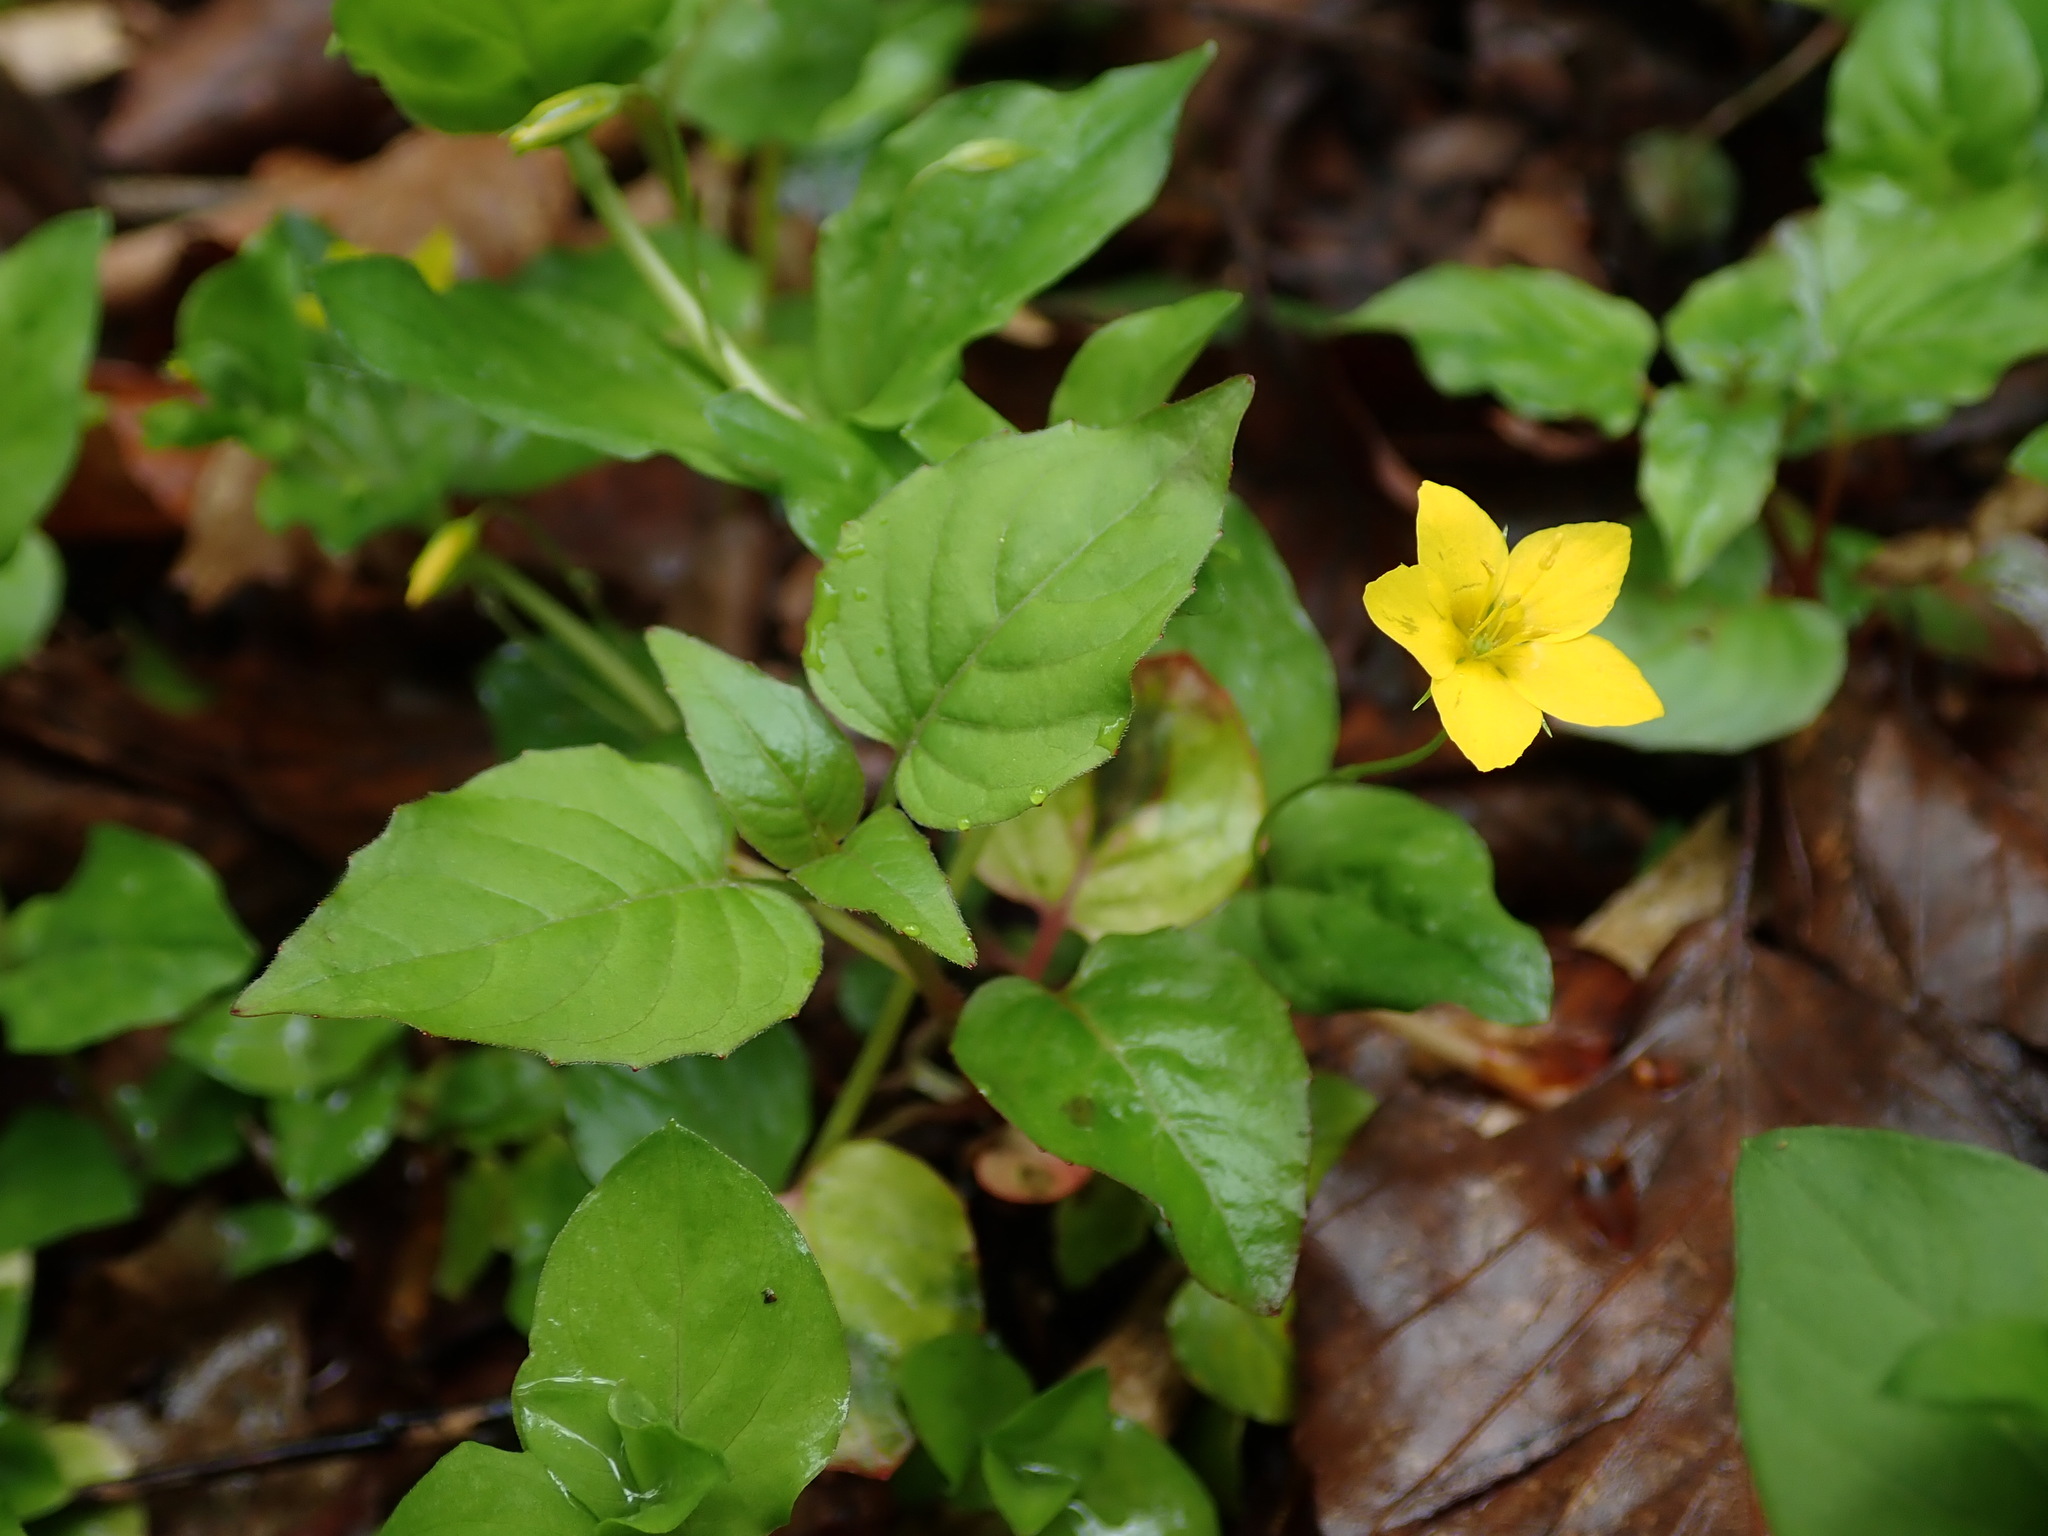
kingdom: Plantae
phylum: Tracheophyta
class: Magnoliopsida
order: Ericales
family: Primulaceae
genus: Lysimachia
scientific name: Lysimachia nemorum
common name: Yellow pimpernel
